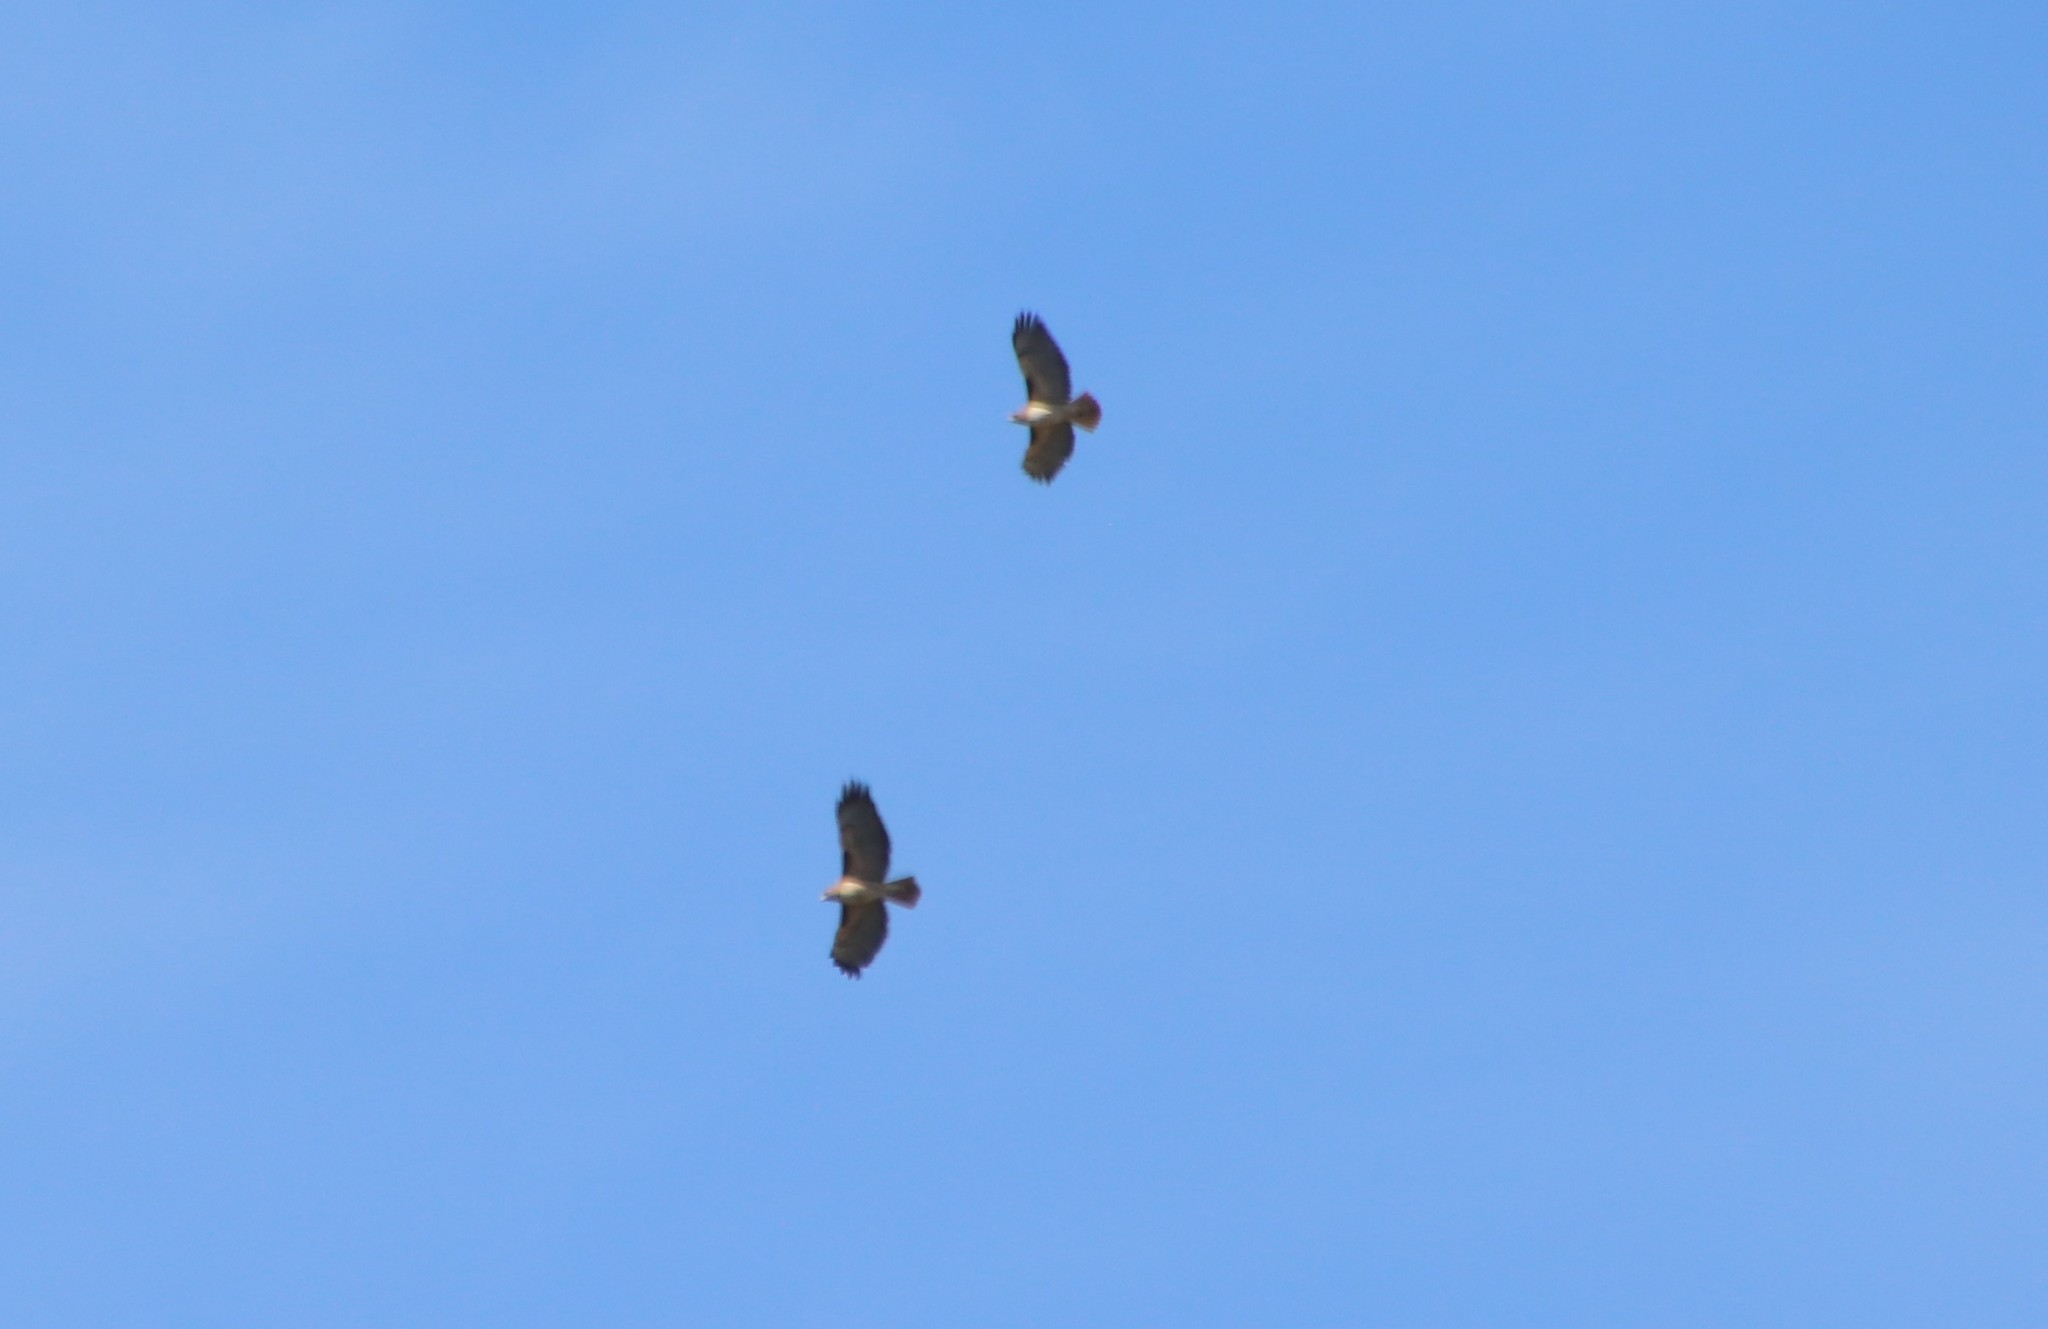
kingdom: Animalia
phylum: Chordata
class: Aves
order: Accipitriformes
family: Accipitridae
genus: Buteo
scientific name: Buteo jamaicensis
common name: Red-tailed hawk
